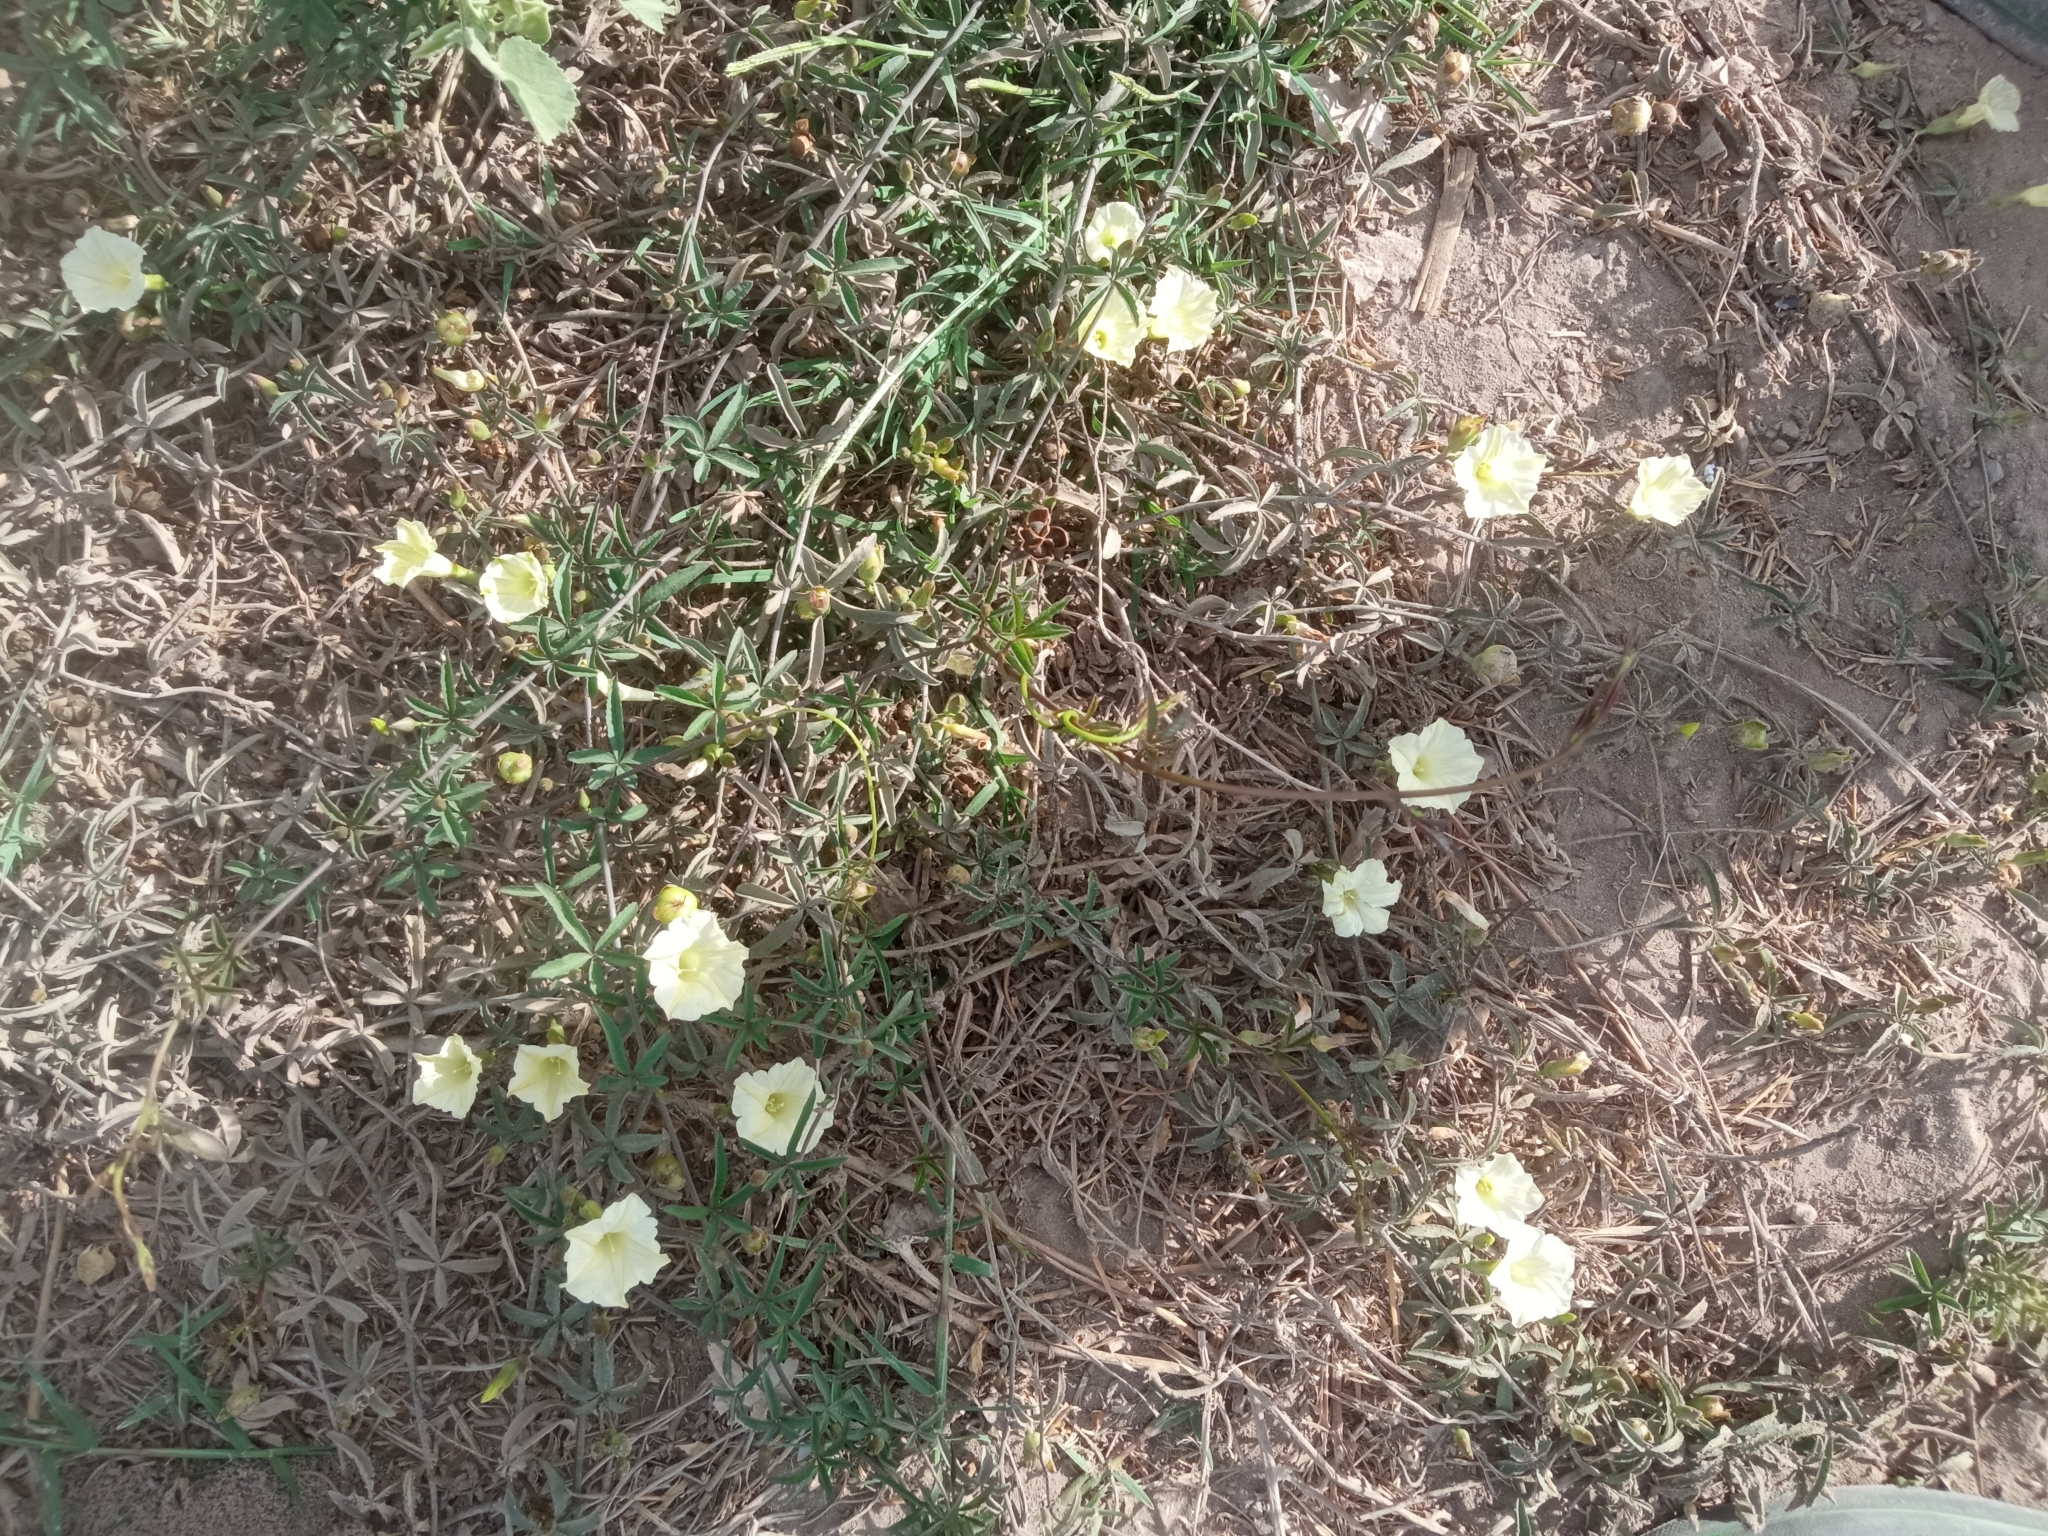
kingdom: Plantae
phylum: Tracheophyta
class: Magnoliopsida
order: Solanales
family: Convolvulaceae
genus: Distimake
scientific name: Distimake quinquefolius
